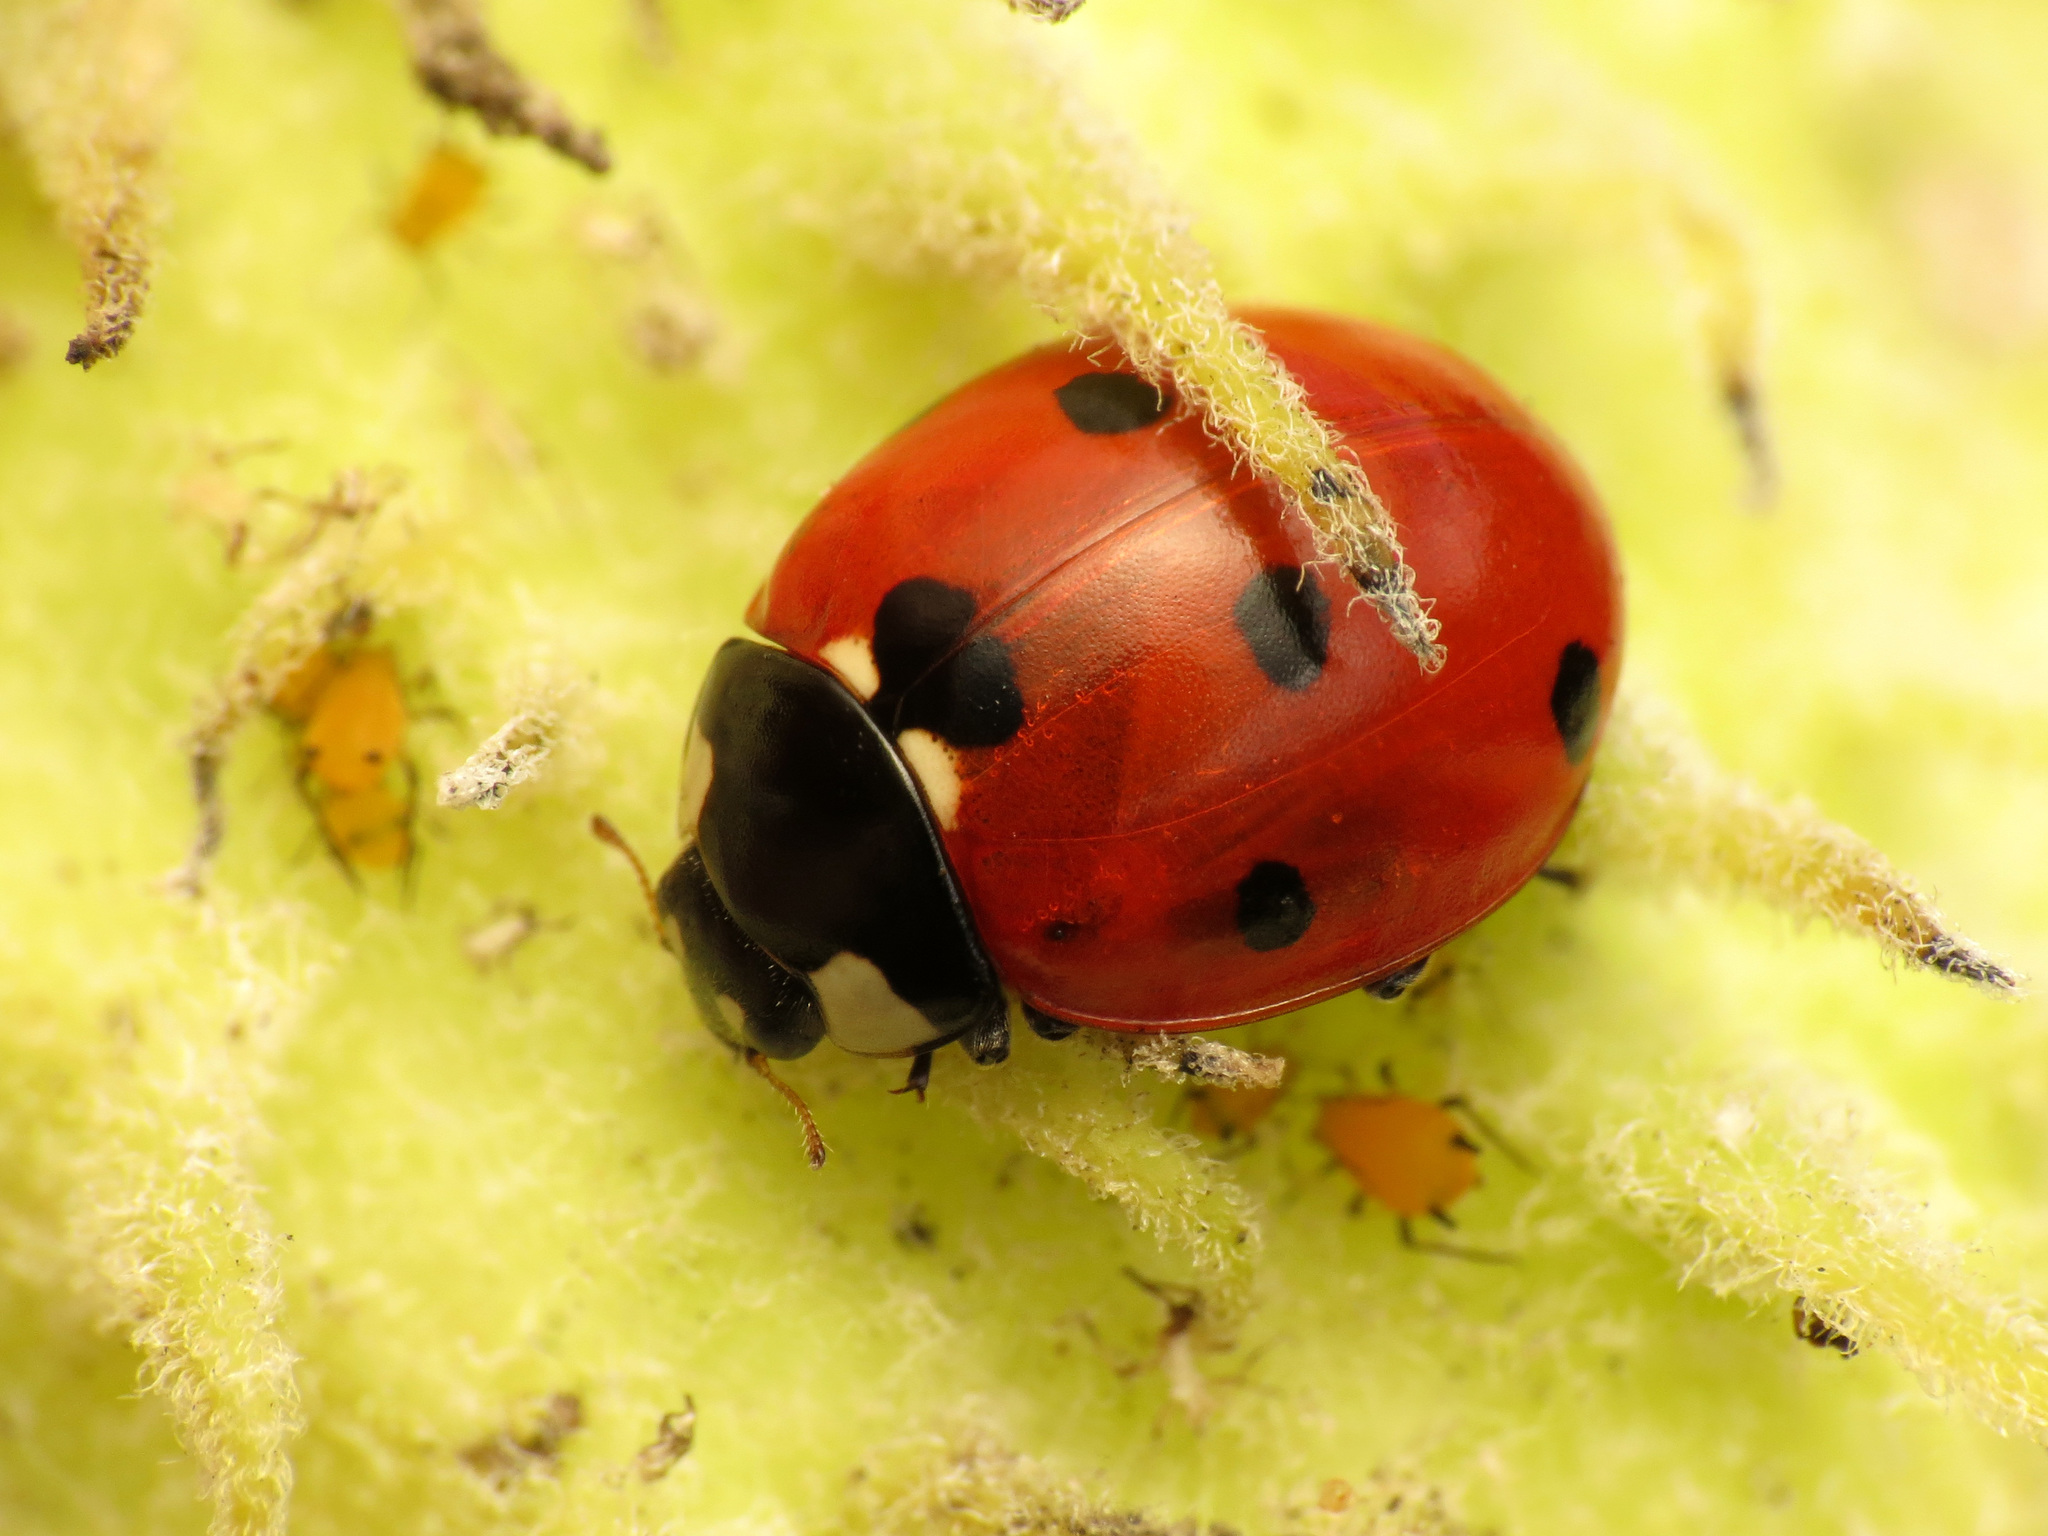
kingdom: Animalia
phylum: Arthropoda
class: Insecta
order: Coleoptera
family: Coccinellidae
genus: Coccinella
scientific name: Coccinella septempunctata
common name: Sevenspotted lady beetle
